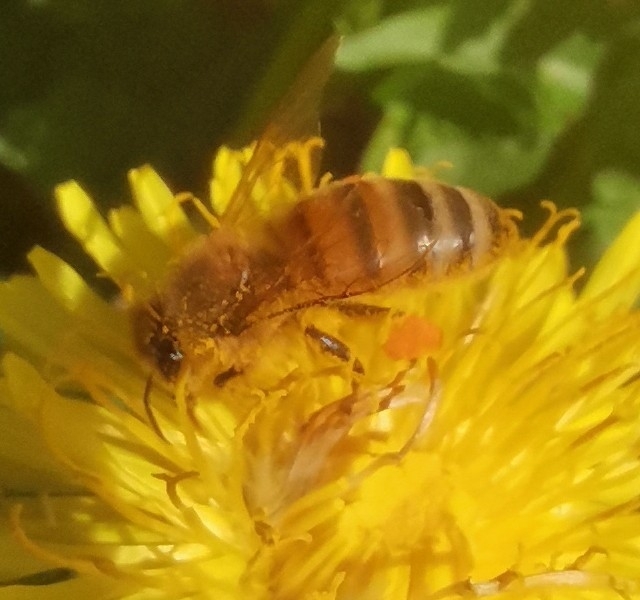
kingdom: Animalia
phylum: Arthropoda
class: Insecta
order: Hymenoptera
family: Apidae
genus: Apis
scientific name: Apis mellifera
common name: Honey bee
